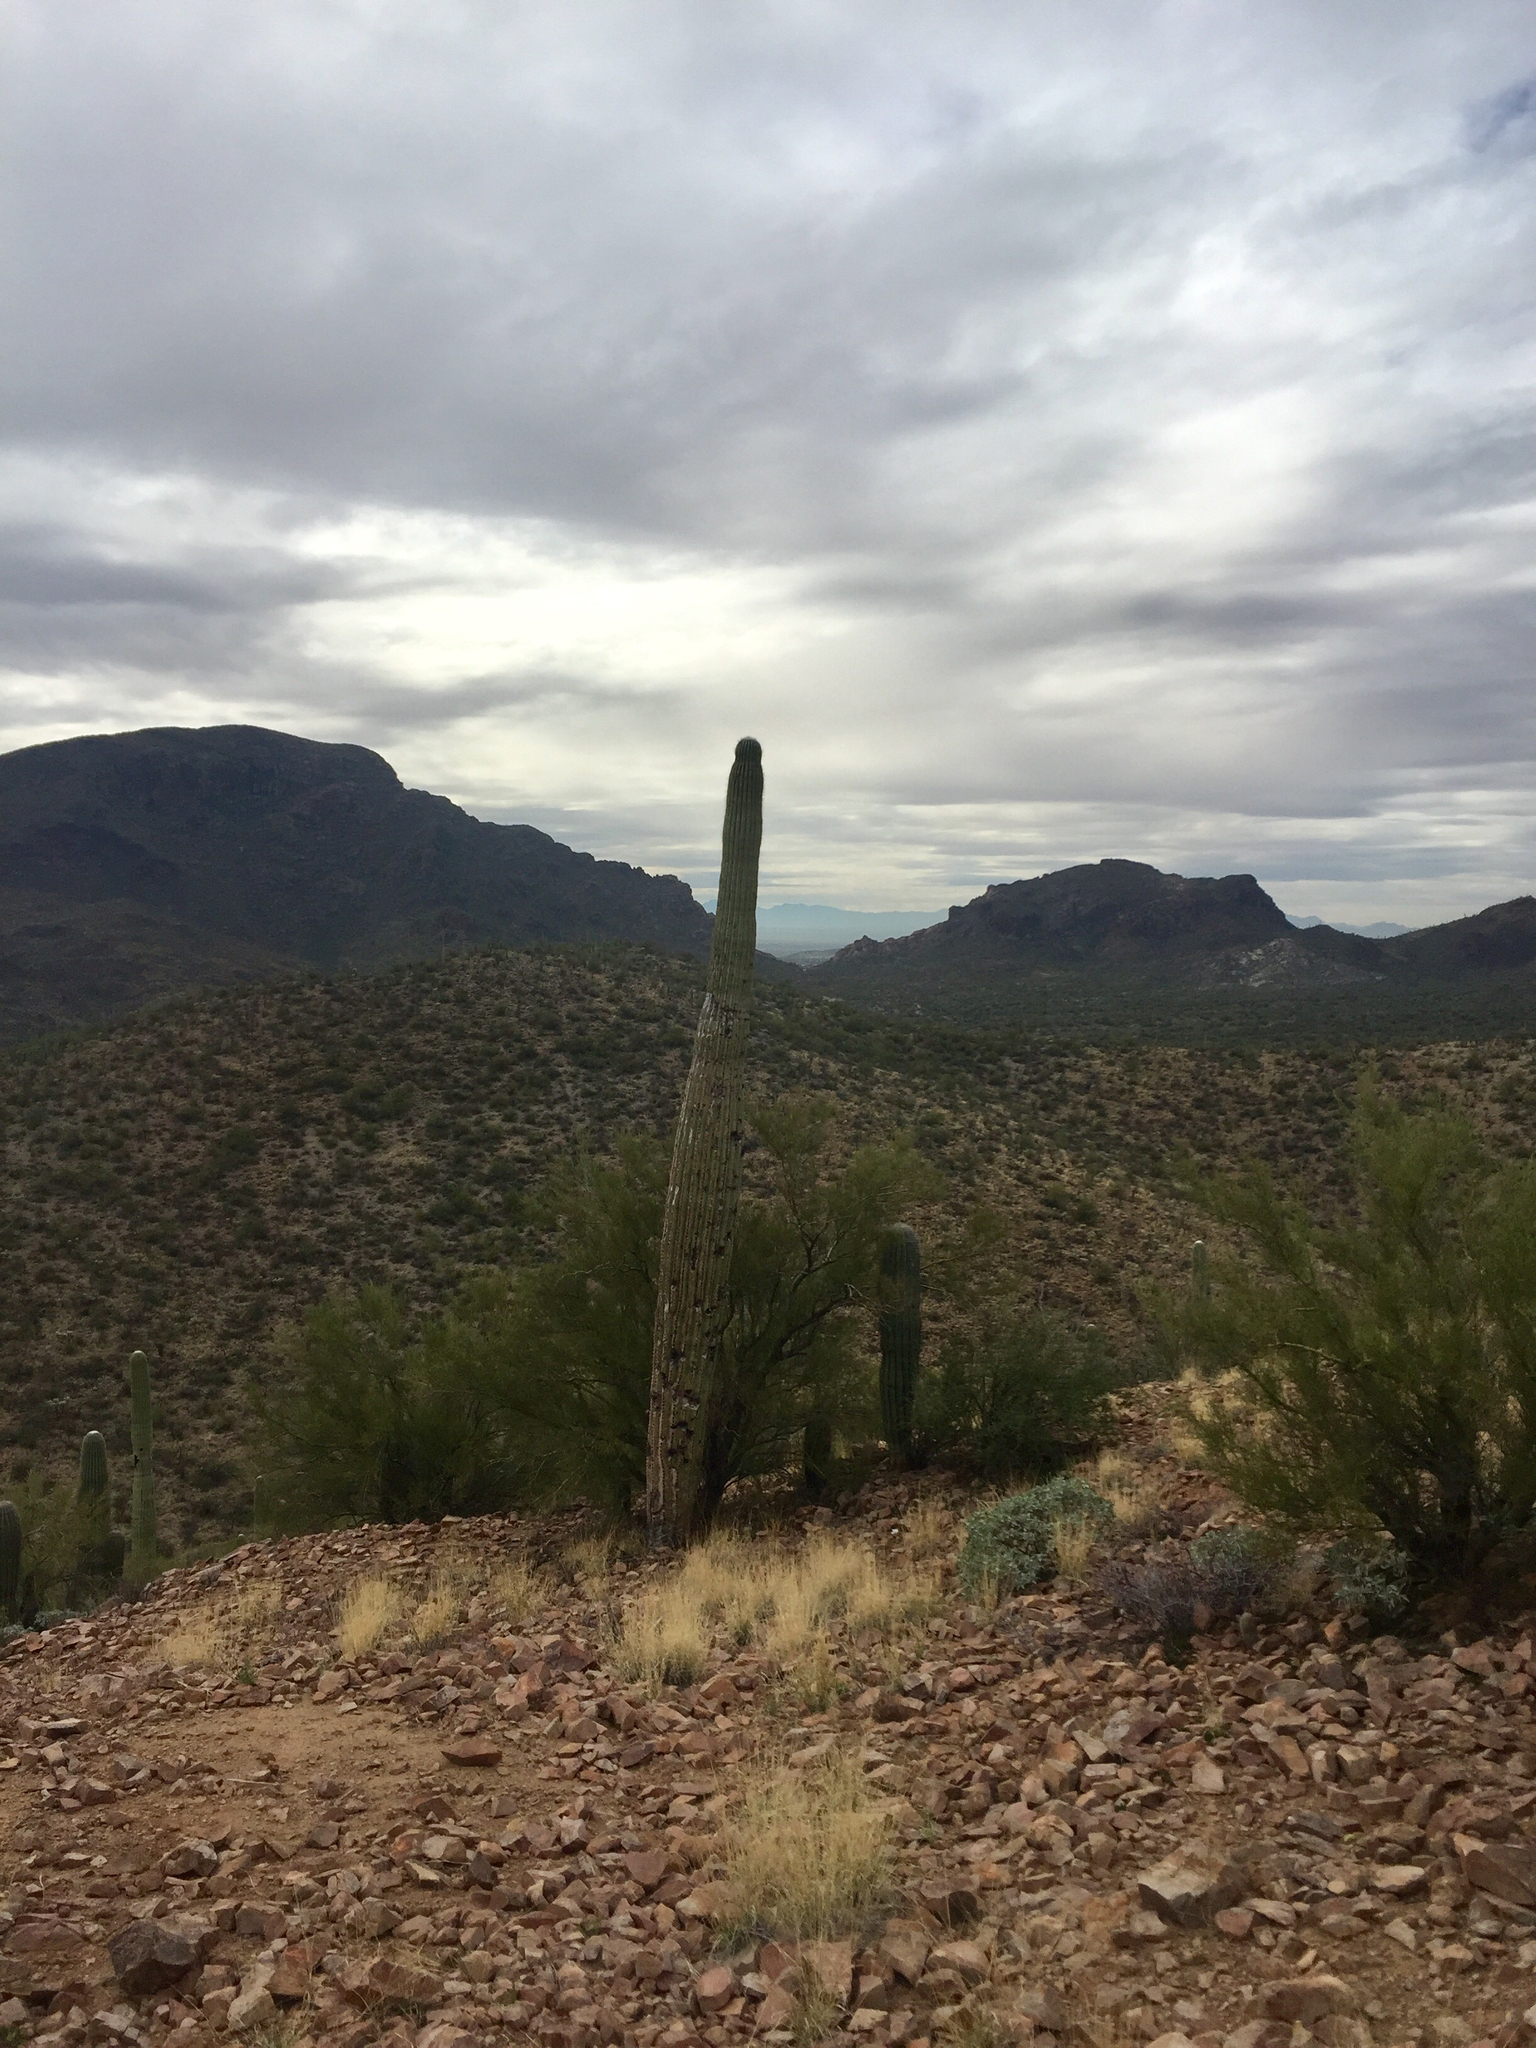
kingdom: Plantae
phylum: Tracheophyta
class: Magnoliopsida
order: Caryophyllales
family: Cactaceae
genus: Carnegiea
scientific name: Carnegiea gigantea
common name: Saguaro
